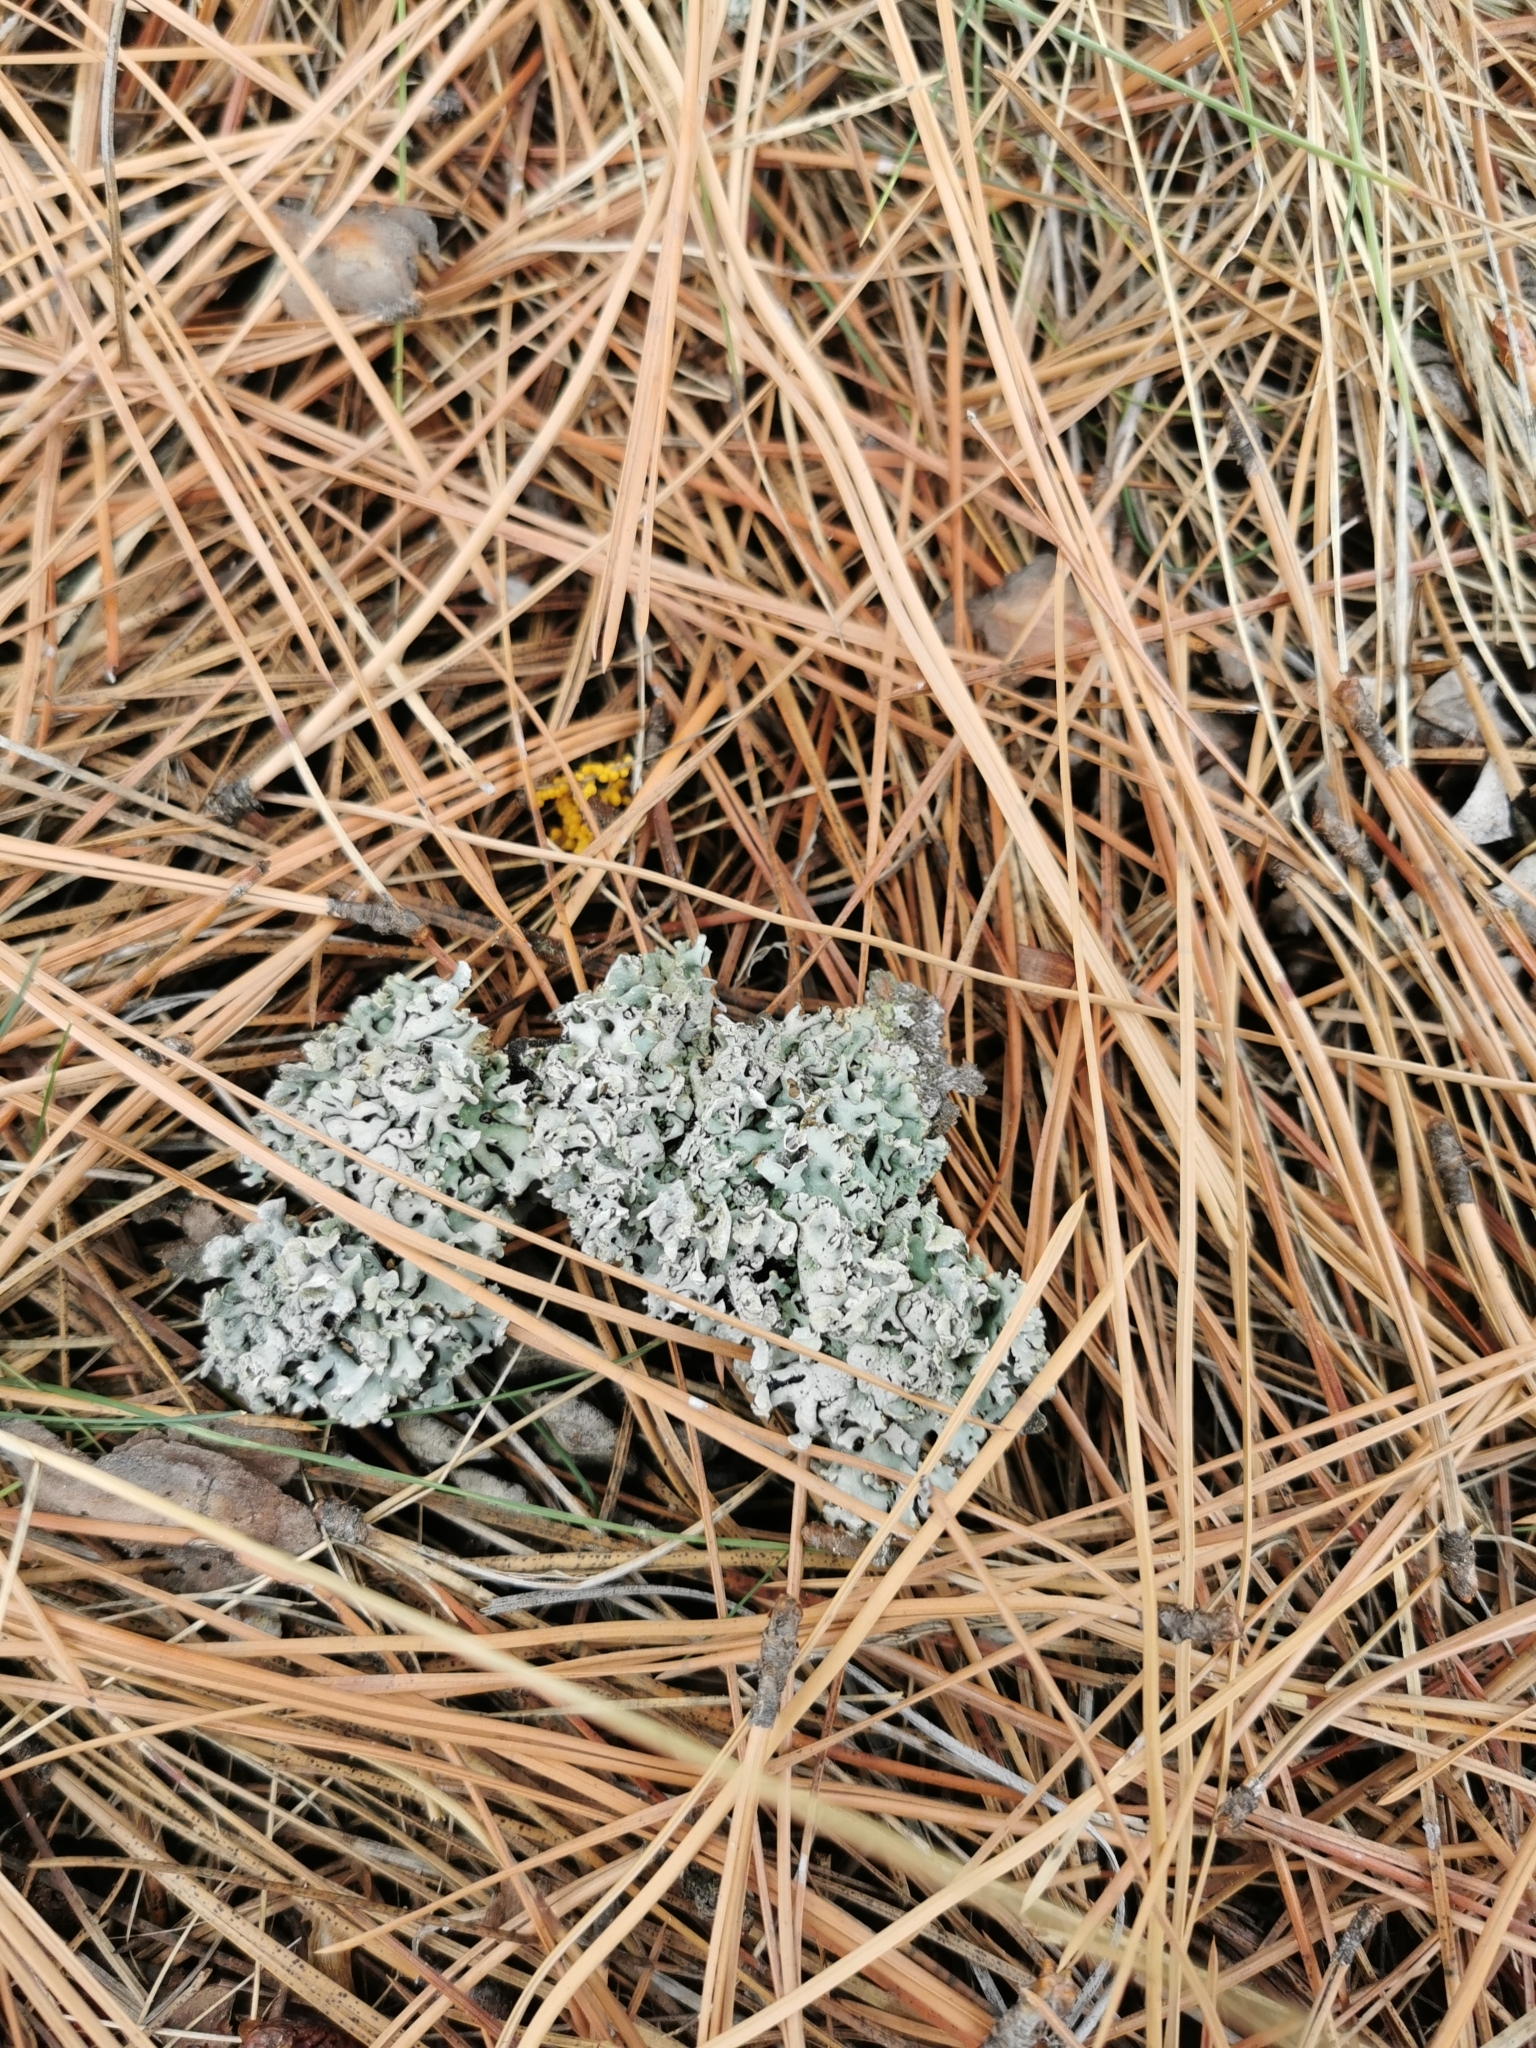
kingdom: Fungi
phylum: Ascomycota
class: Lecanoromycetes
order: Lecanorales
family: Parmeliaceae
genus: Hypogymnia
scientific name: Hypogymnia physodes
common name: Dark crottle
